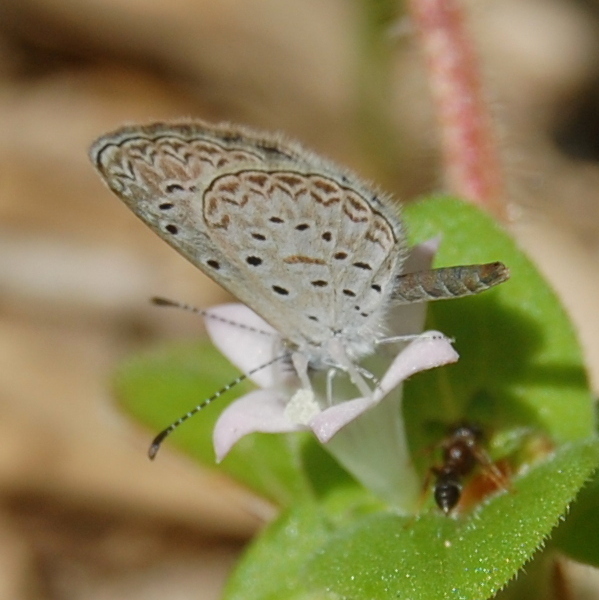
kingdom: Animalia
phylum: Arthropoda
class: Insecta
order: Lepidoptera
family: Lycaenidae
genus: Lycaena
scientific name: Lycaena cyna
